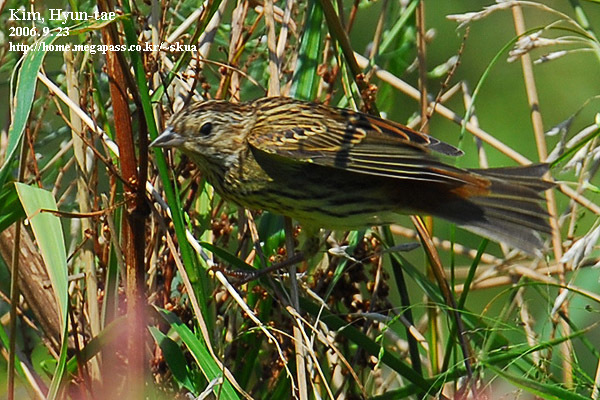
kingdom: Animalia
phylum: Chordata
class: Aves
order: Passeriformes
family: Emberizidae
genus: Emberiza
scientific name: Emberiza rutila
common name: Chestnut bunting
